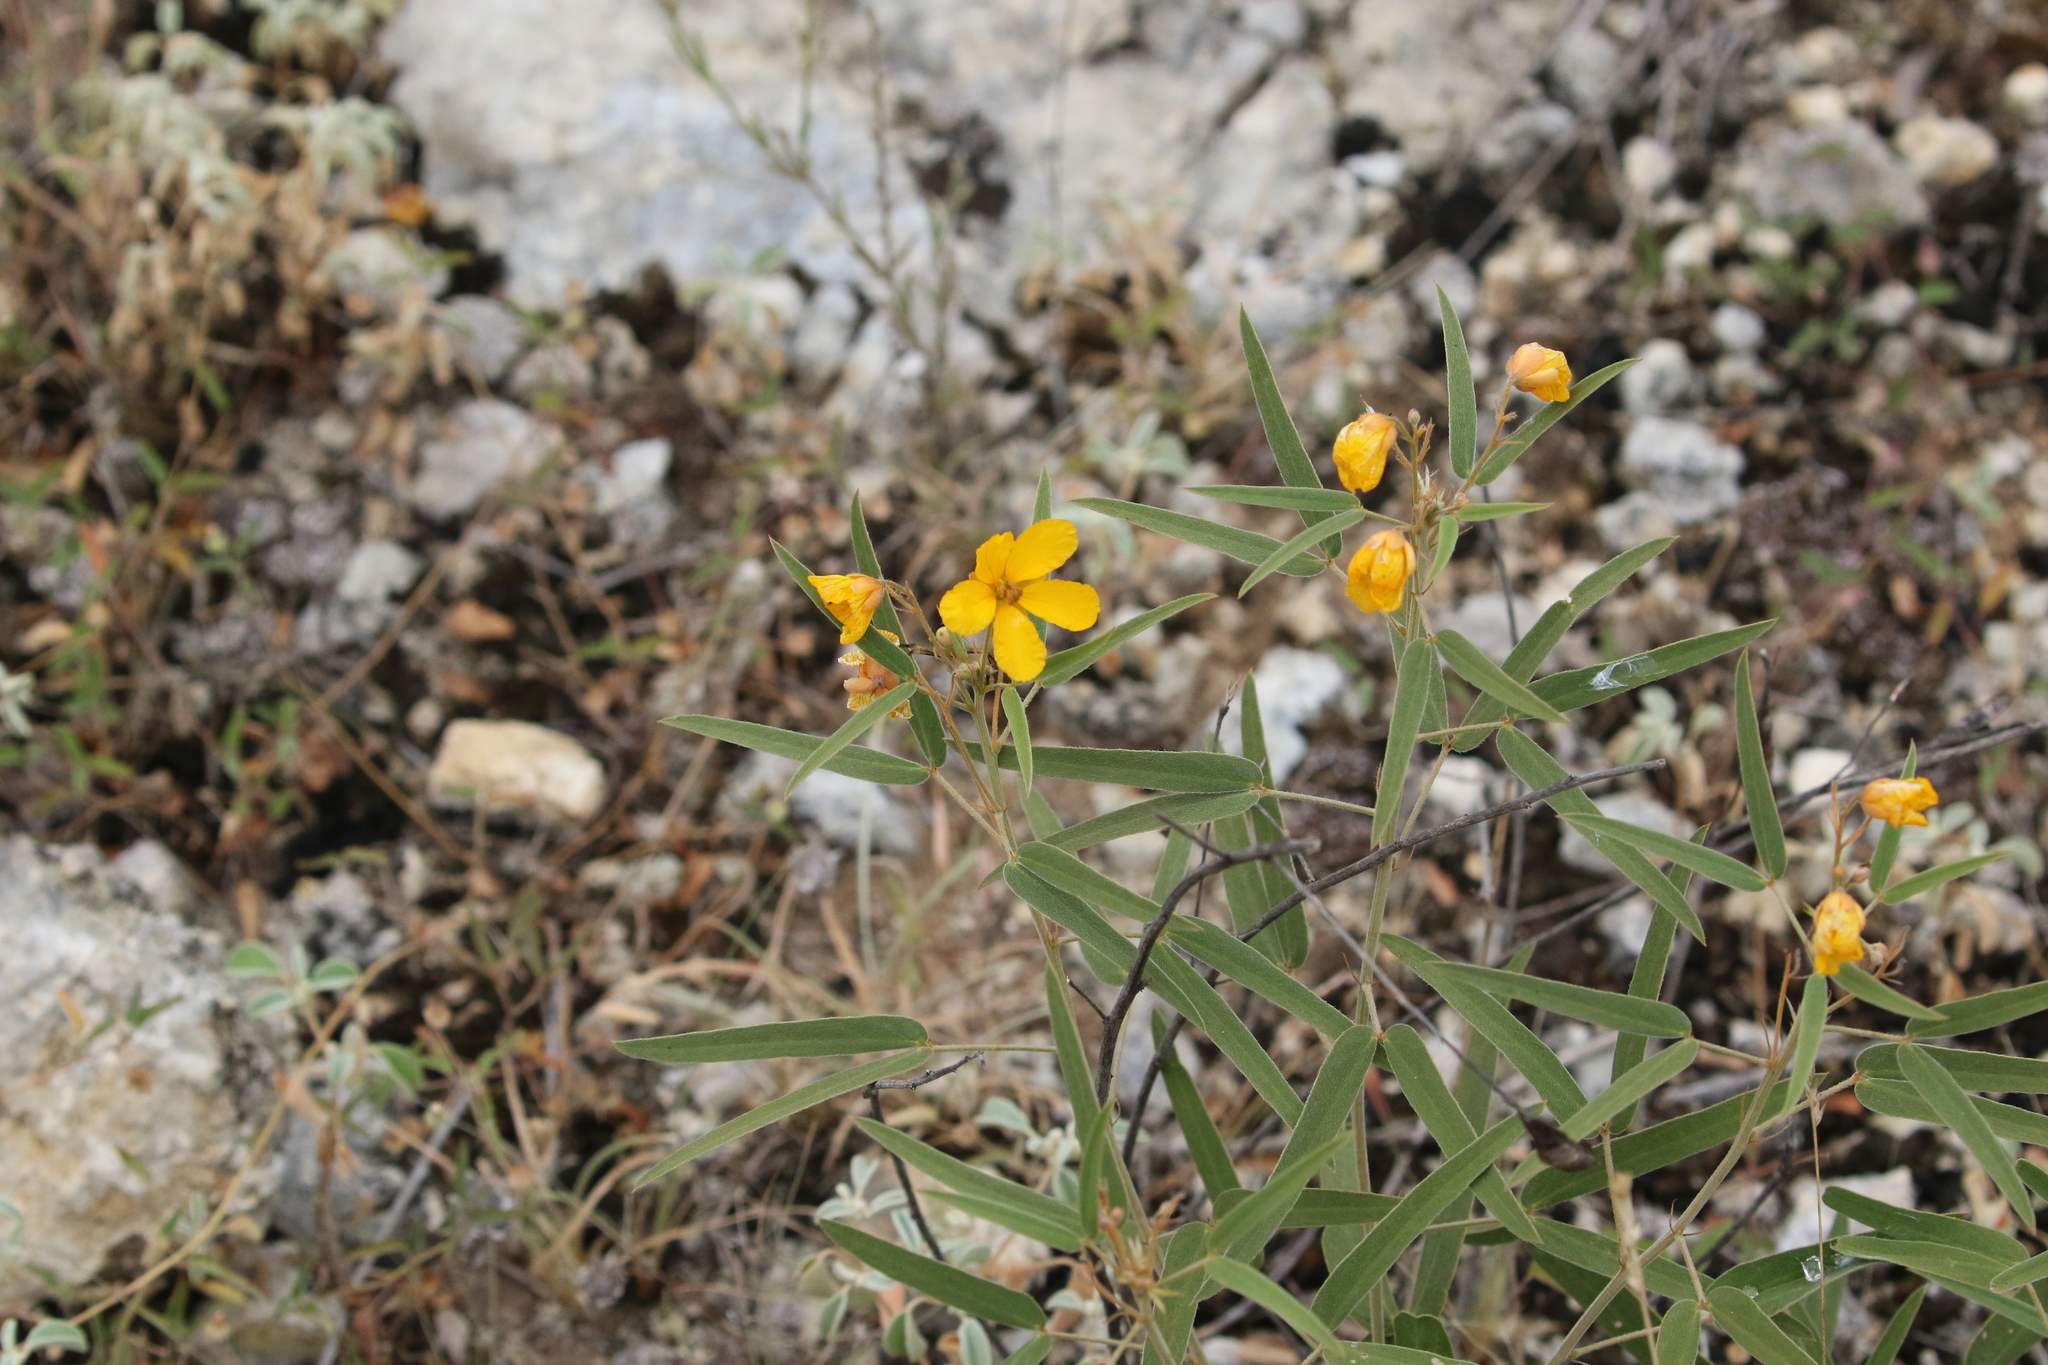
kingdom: Plantae
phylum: Tracheophyta
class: Magnoliopsida
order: Fabales
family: Fabaceae
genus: Senna
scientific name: Senna roemeriana
